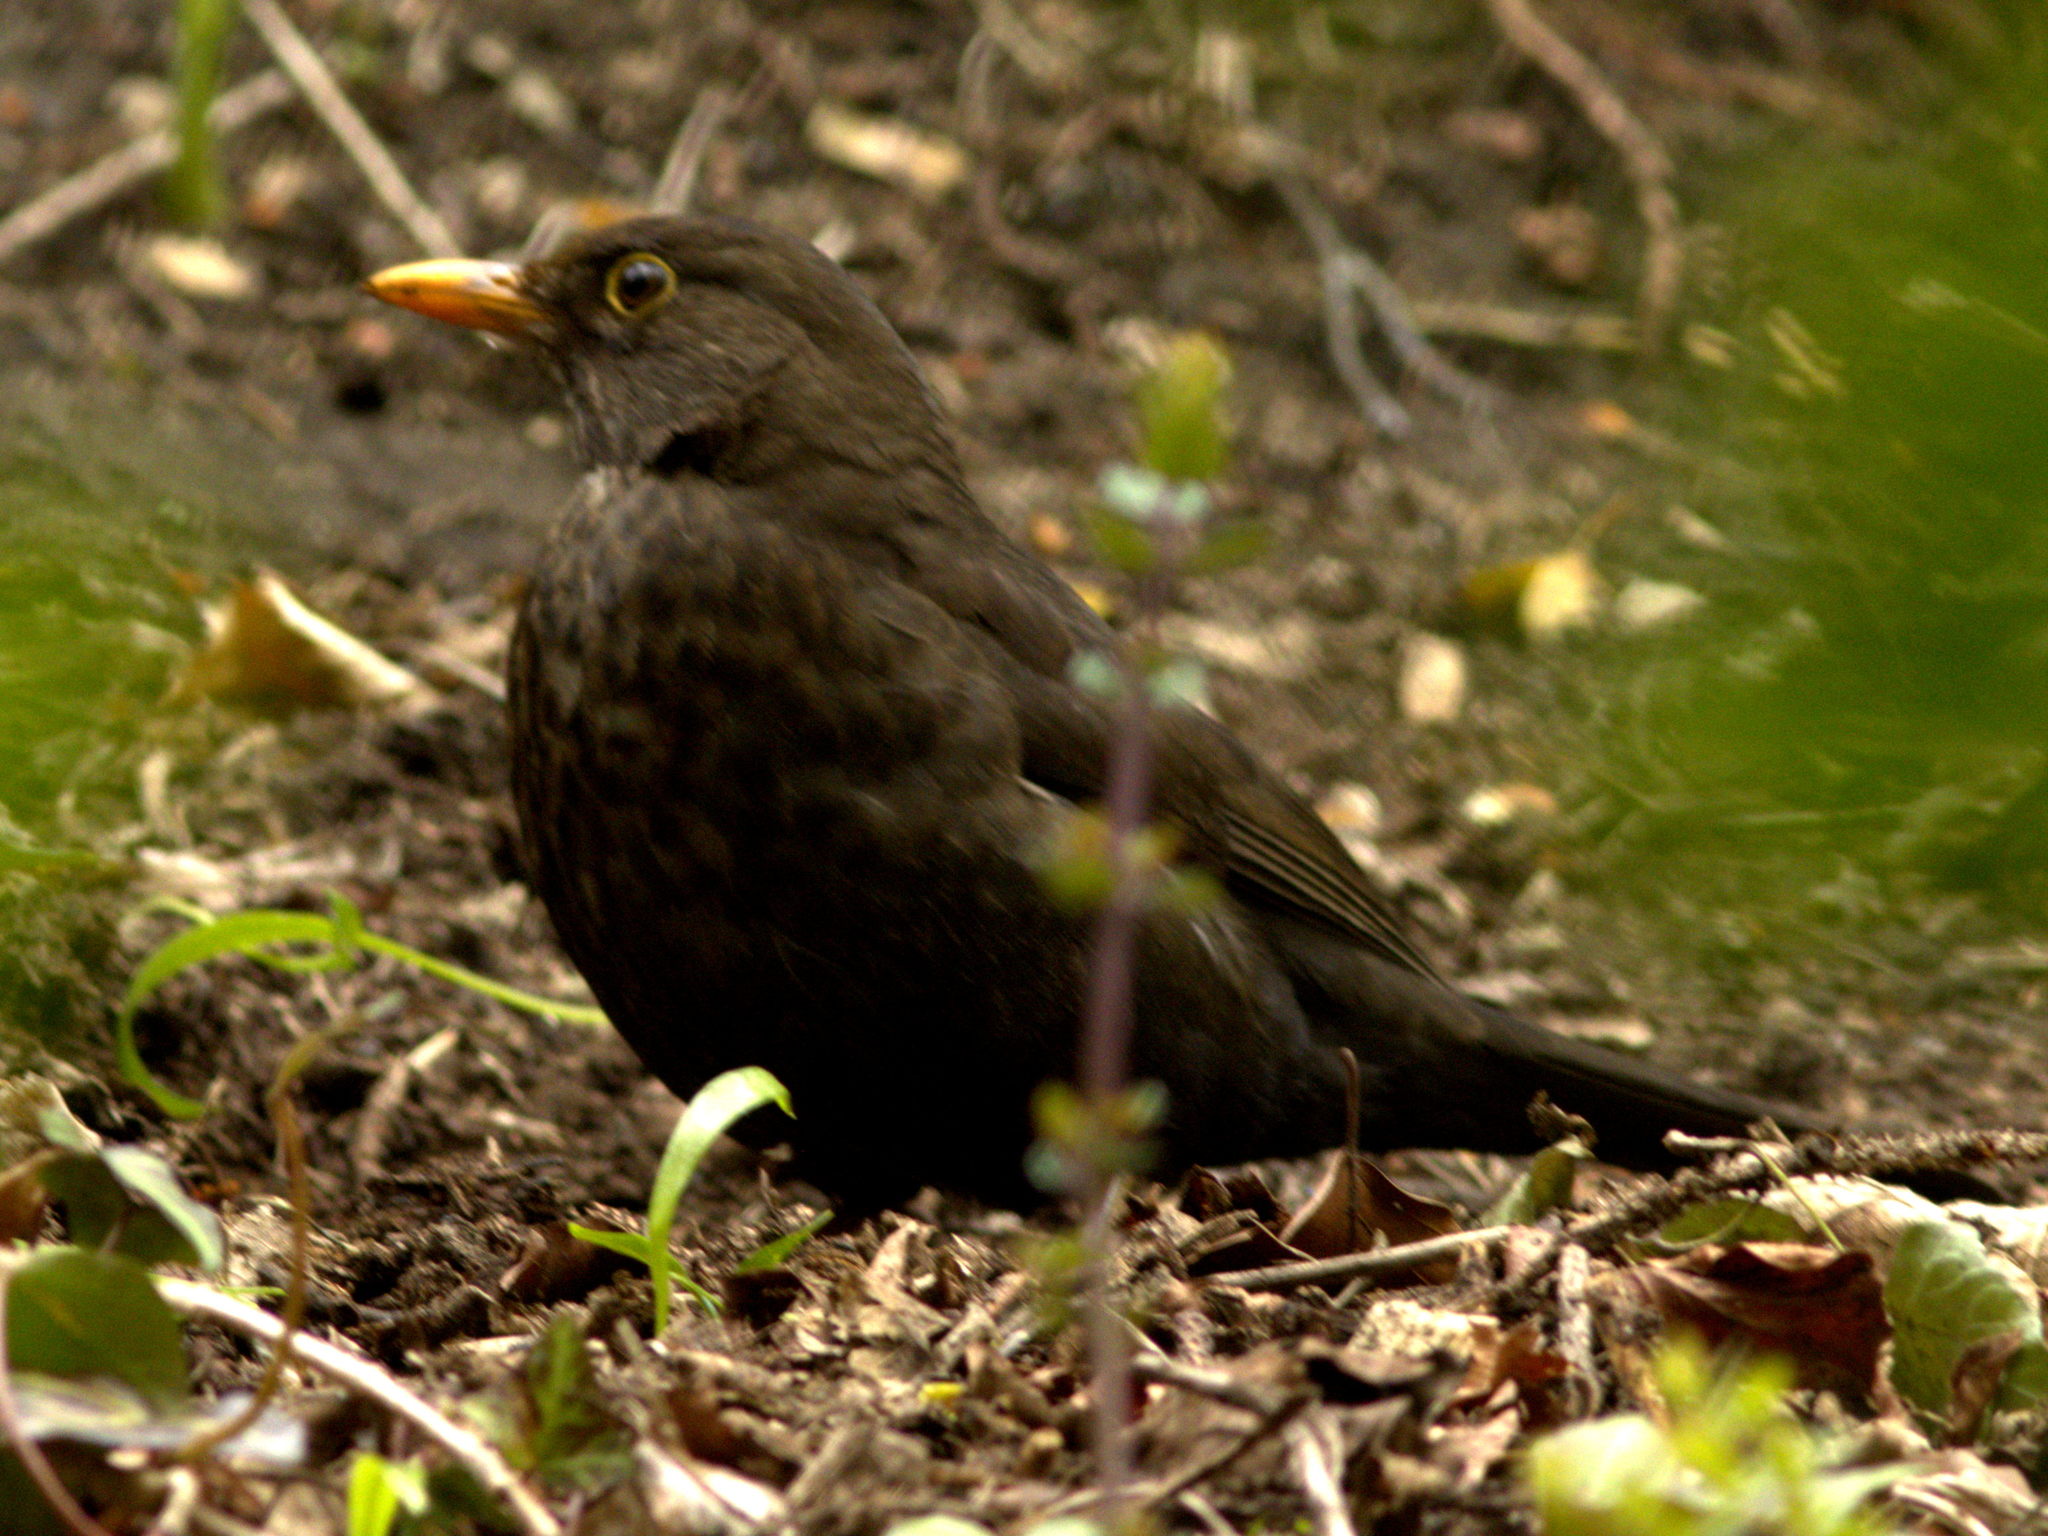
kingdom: Animalia
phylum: Chordata
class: Aves
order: Passeriformes
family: Turdidae
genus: Turdus
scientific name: Turdus merula
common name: Common blackbird
